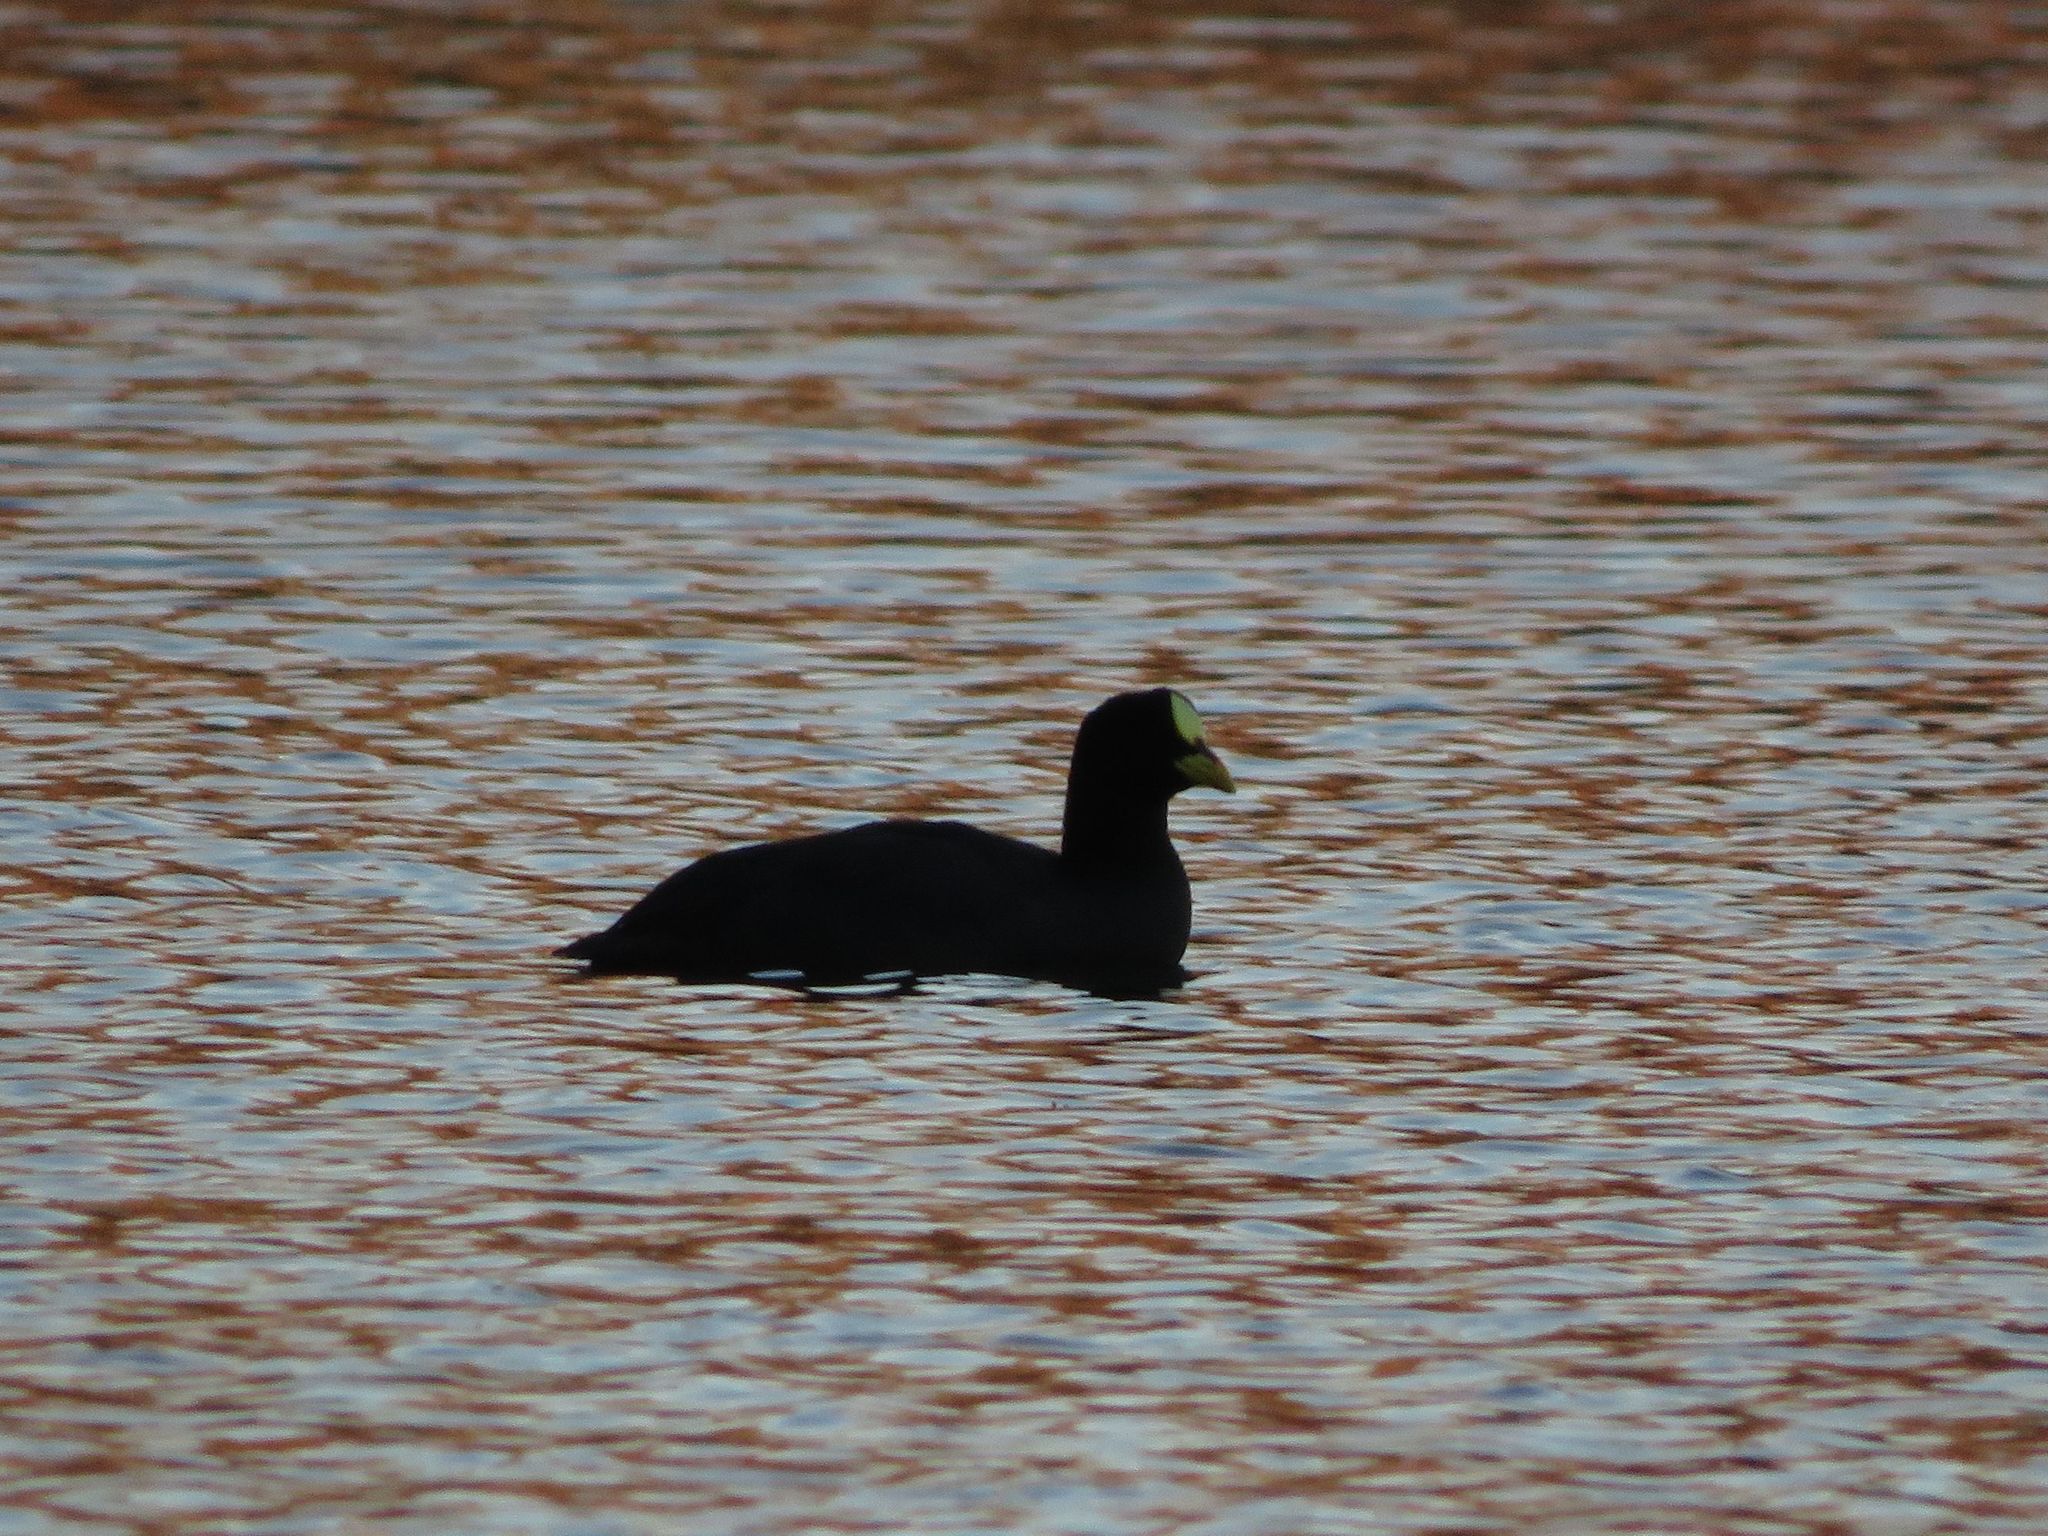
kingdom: Animalia
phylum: Chordata
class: Aves
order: Gruiformes
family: Rallidae
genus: Fulica
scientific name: Fulica armillata
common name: Red-gartered coot
